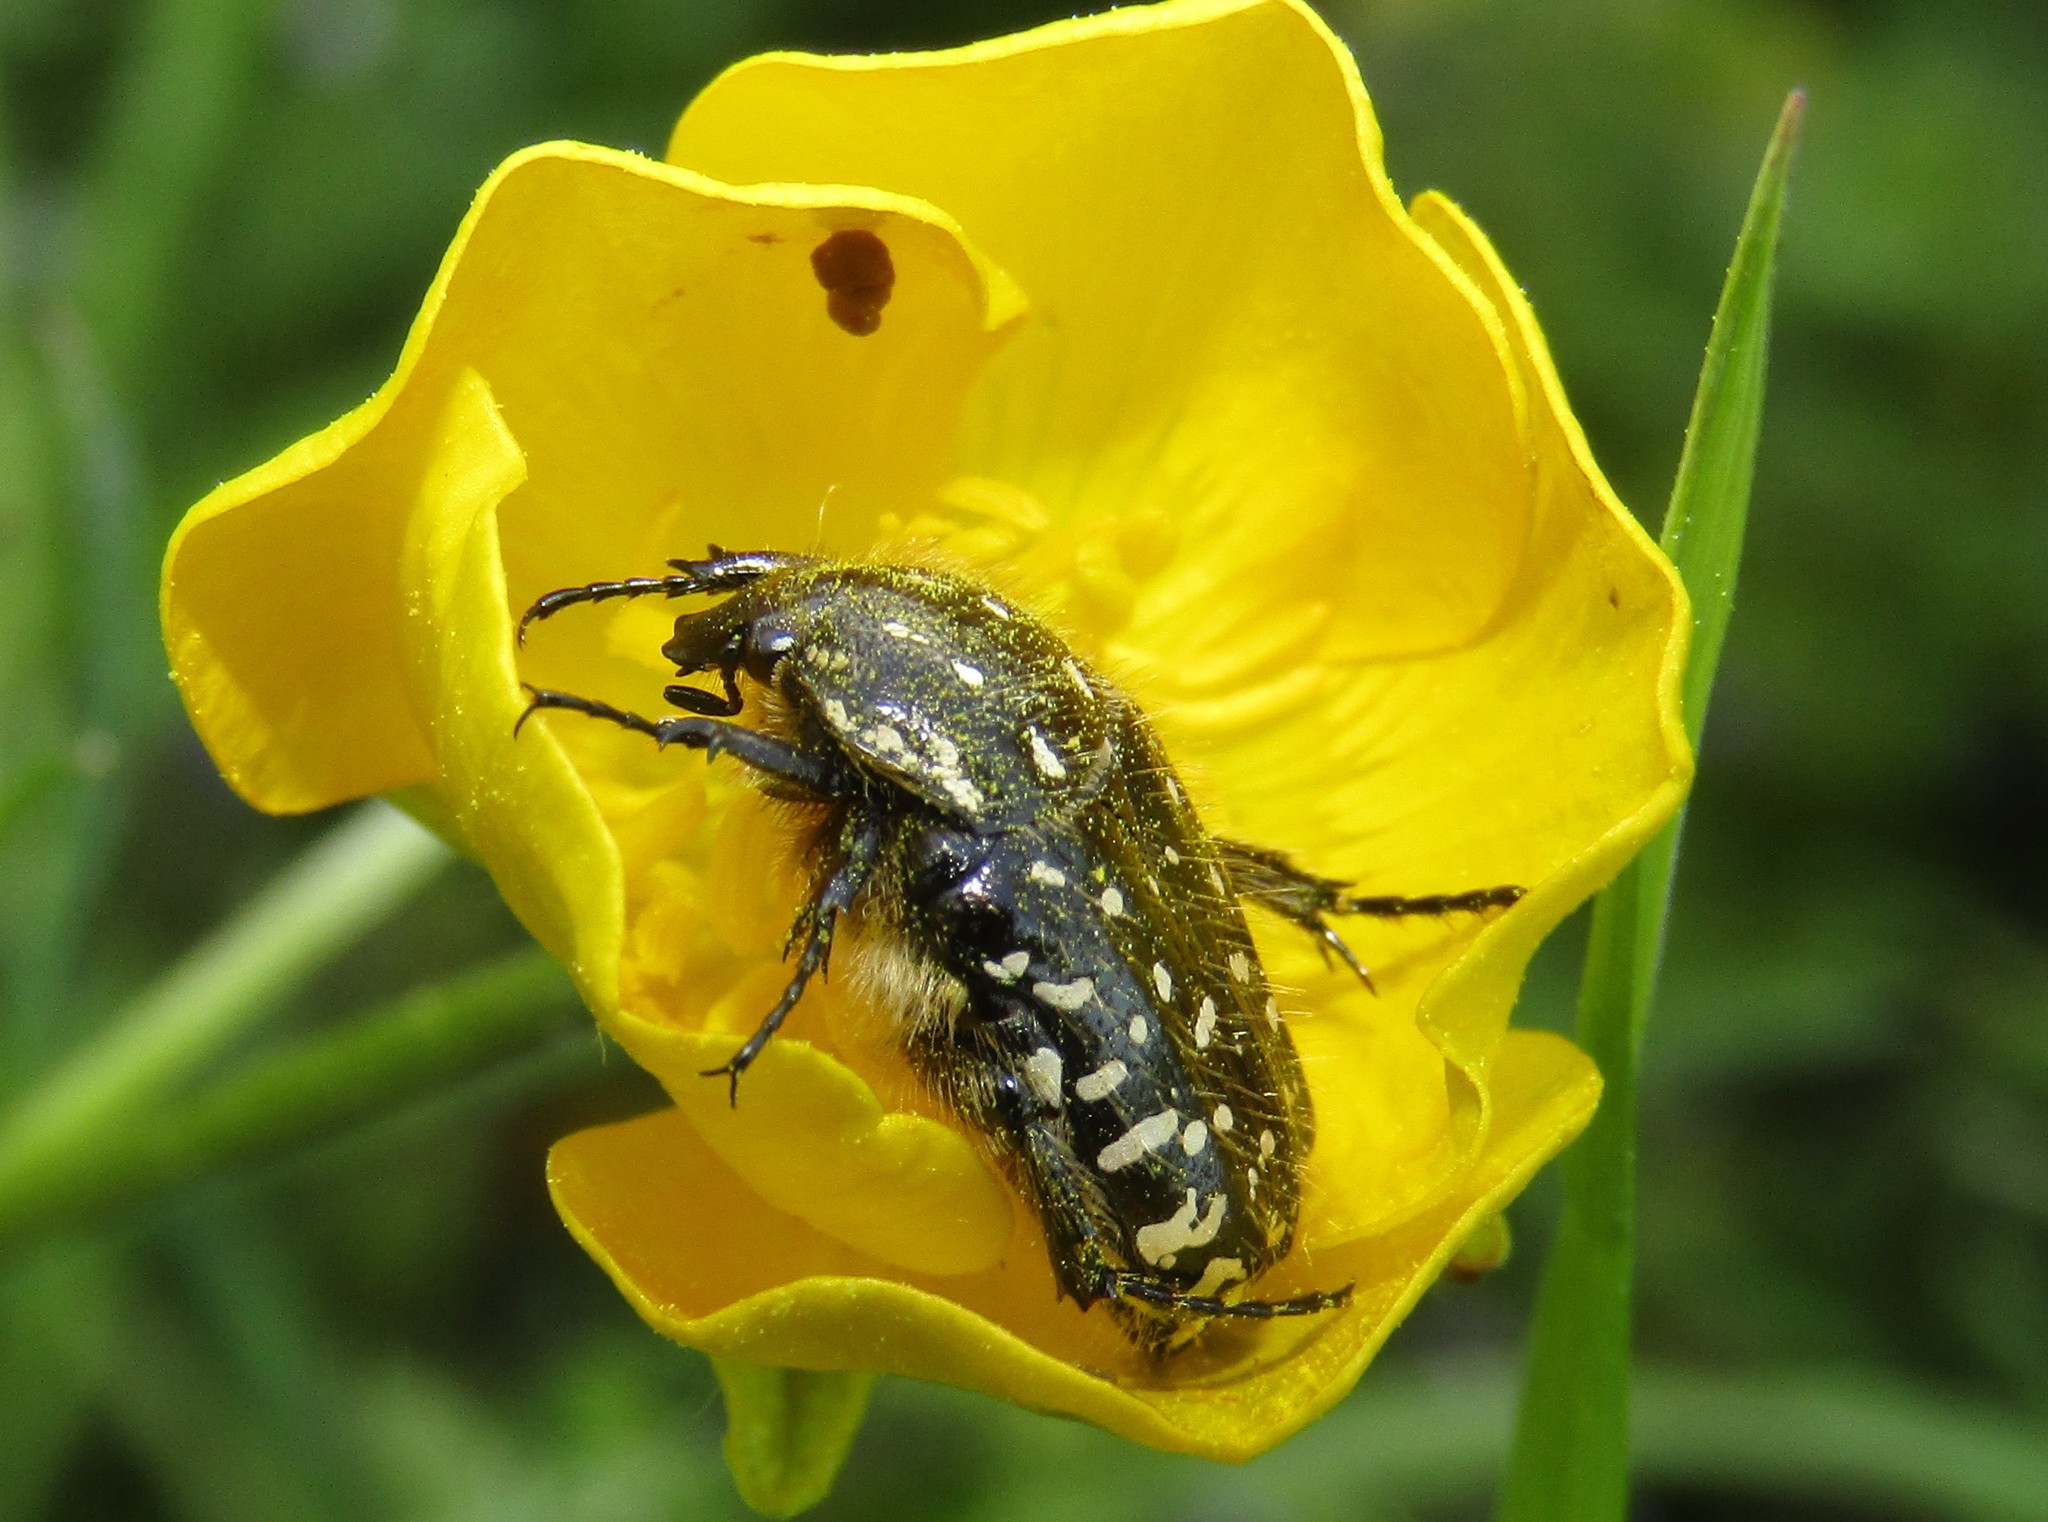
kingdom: Animalia
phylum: Arthropoda
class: Insecta
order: Coleoptera
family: Scarabaeidae
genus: Oxythyrea
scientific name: Oxythyrea funesta
